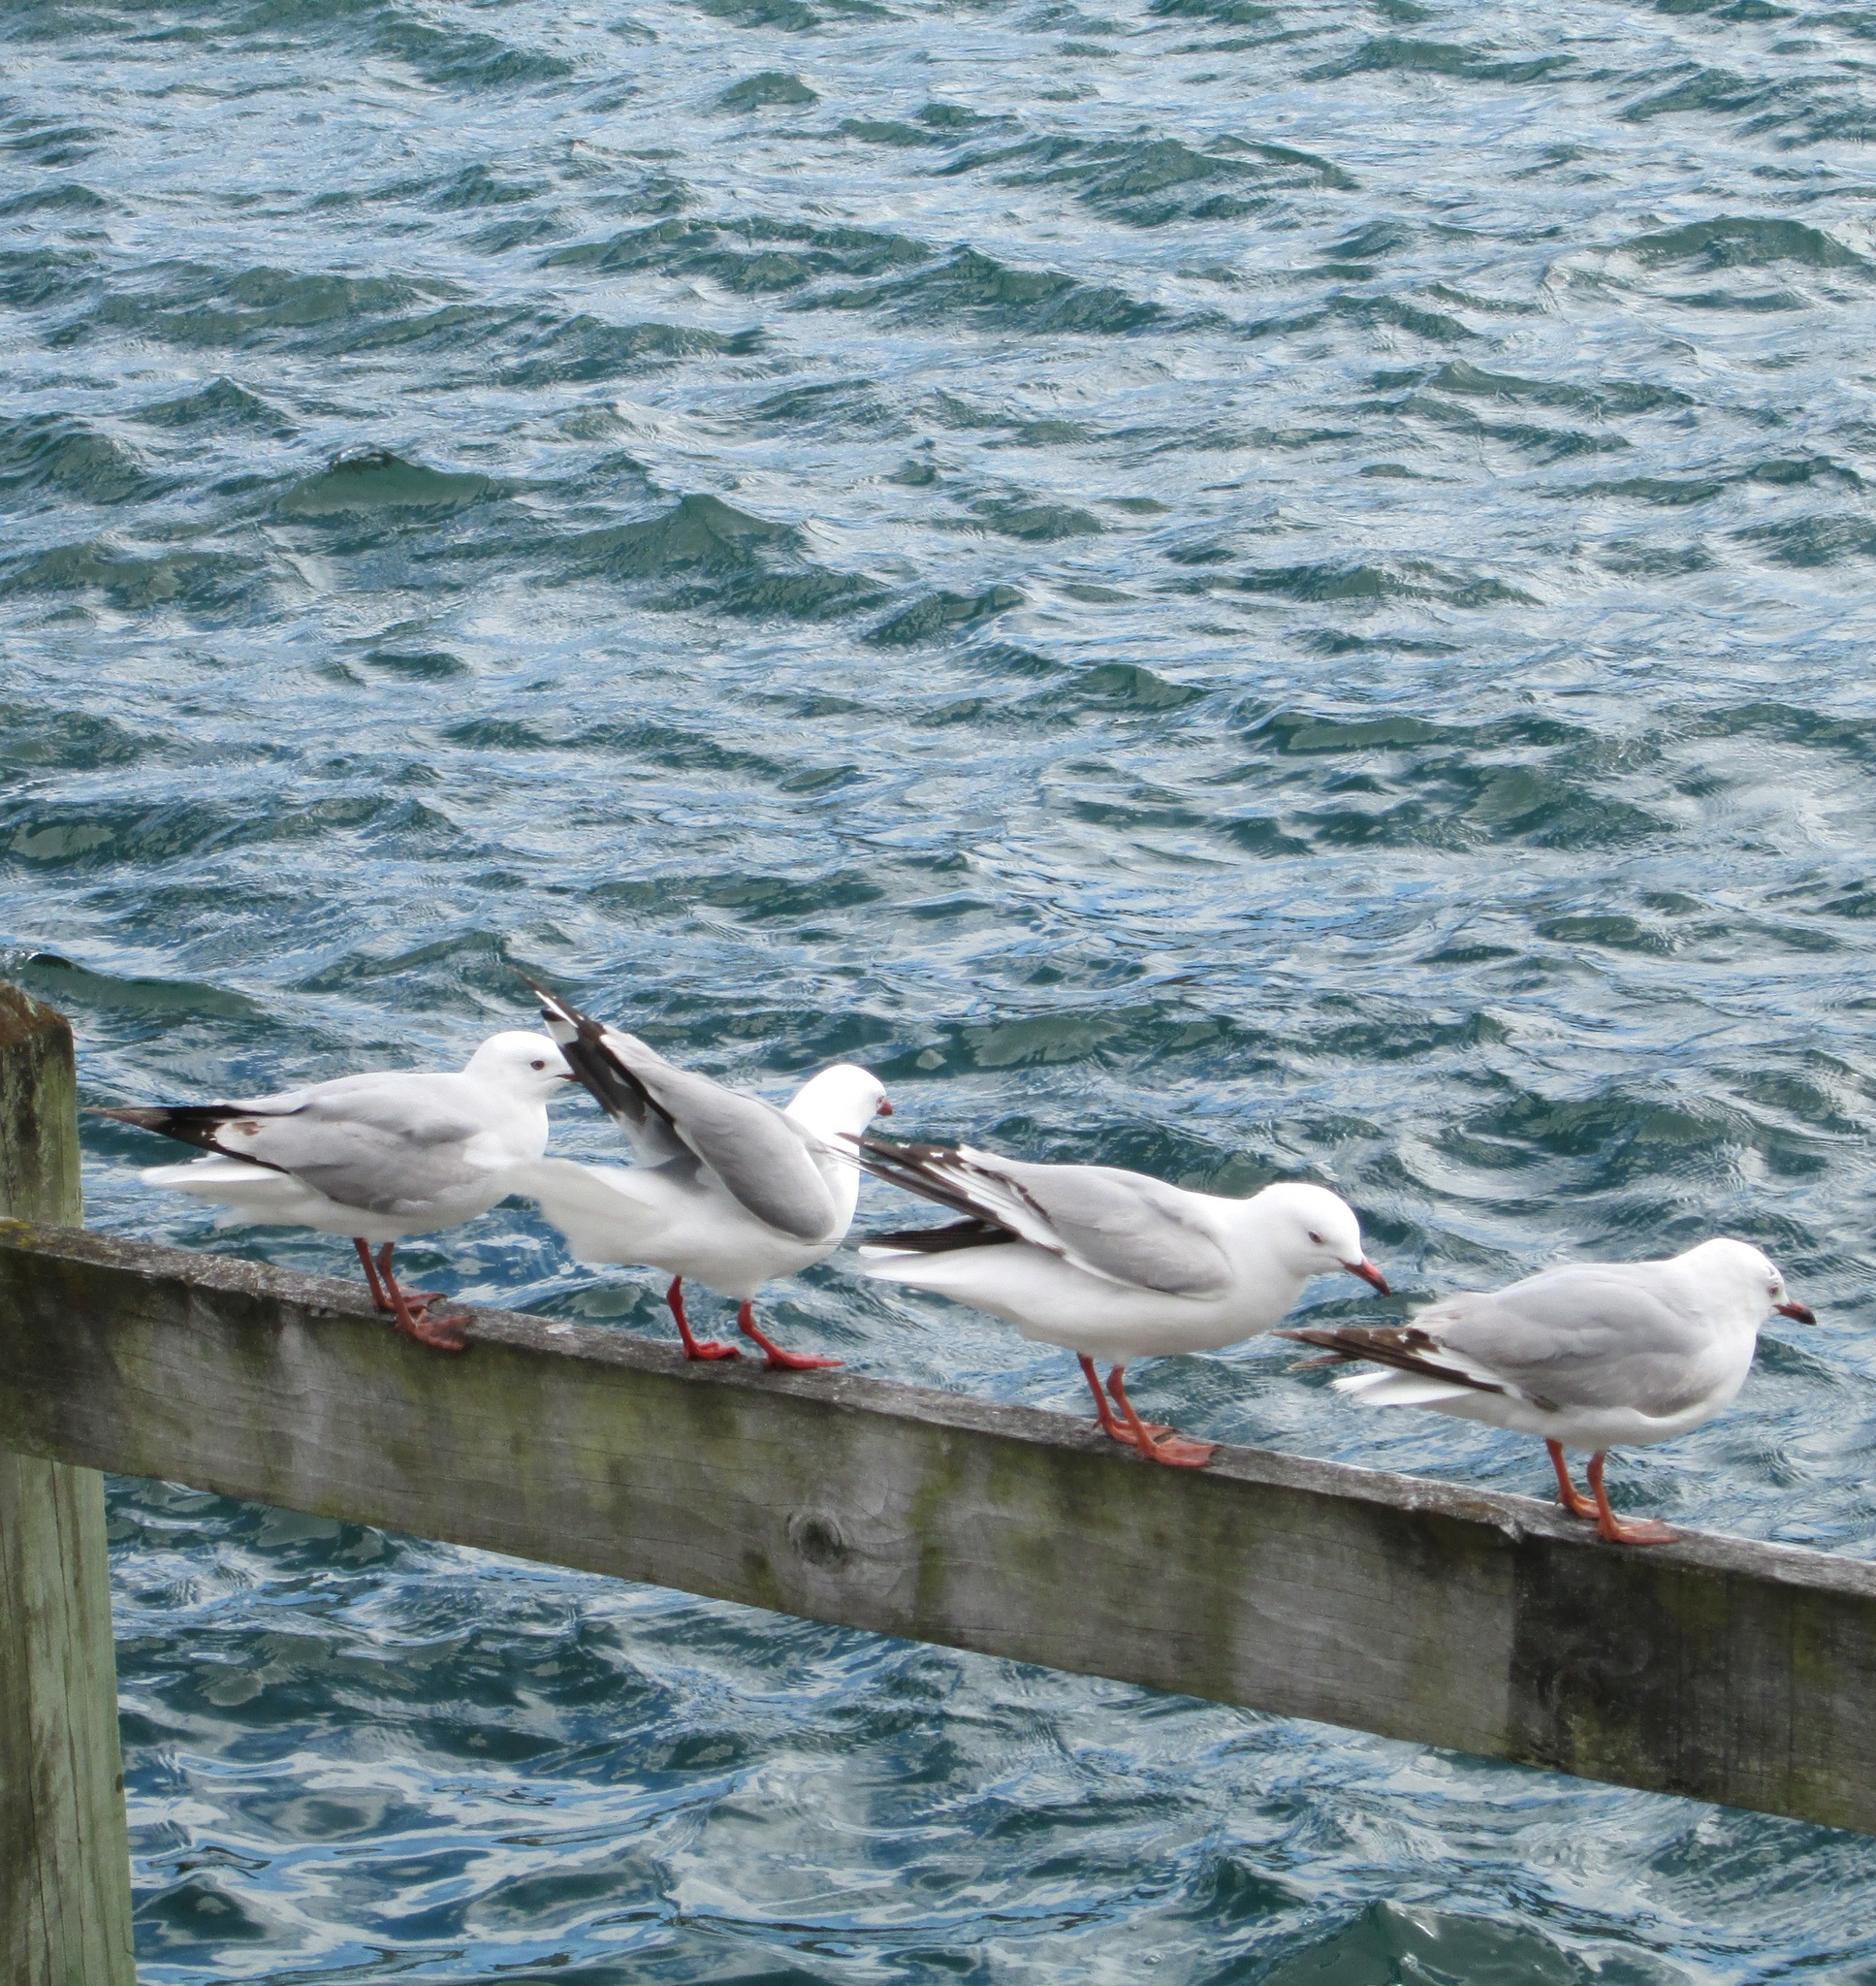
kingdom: Animalia
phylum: Chordata
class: Aves
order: Charadriiformes
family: Laridae
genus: Chroicocephalus
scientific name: Chroicocephalus novaehollandiae
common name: Silver gull
